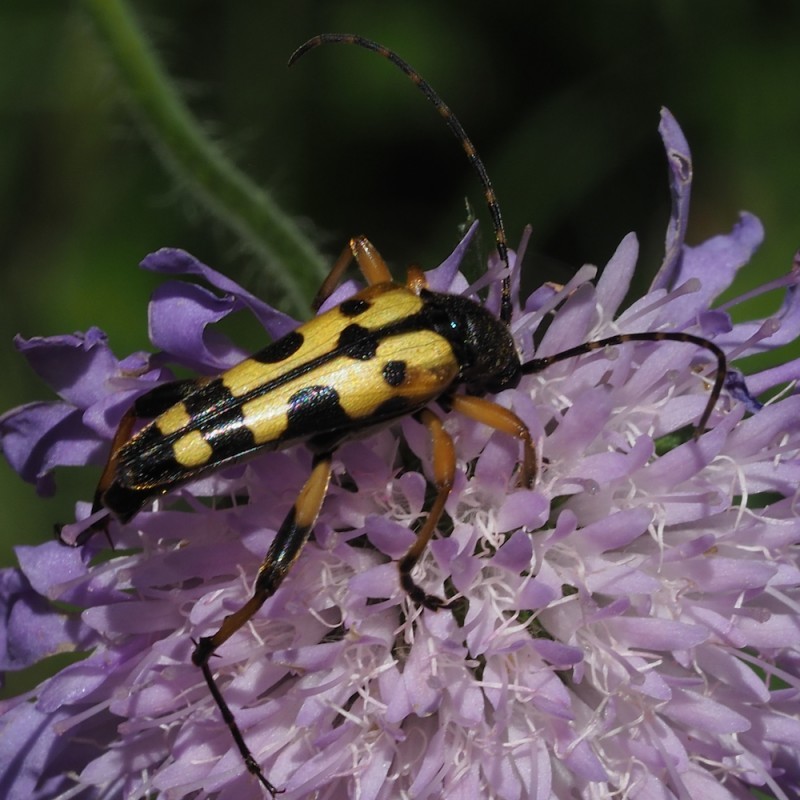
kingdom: Animalia
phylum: Arthropoda
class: Insecta
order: Coleoptera
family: Cerambycidae
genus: Rutpela
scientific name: Rutpela maculata
